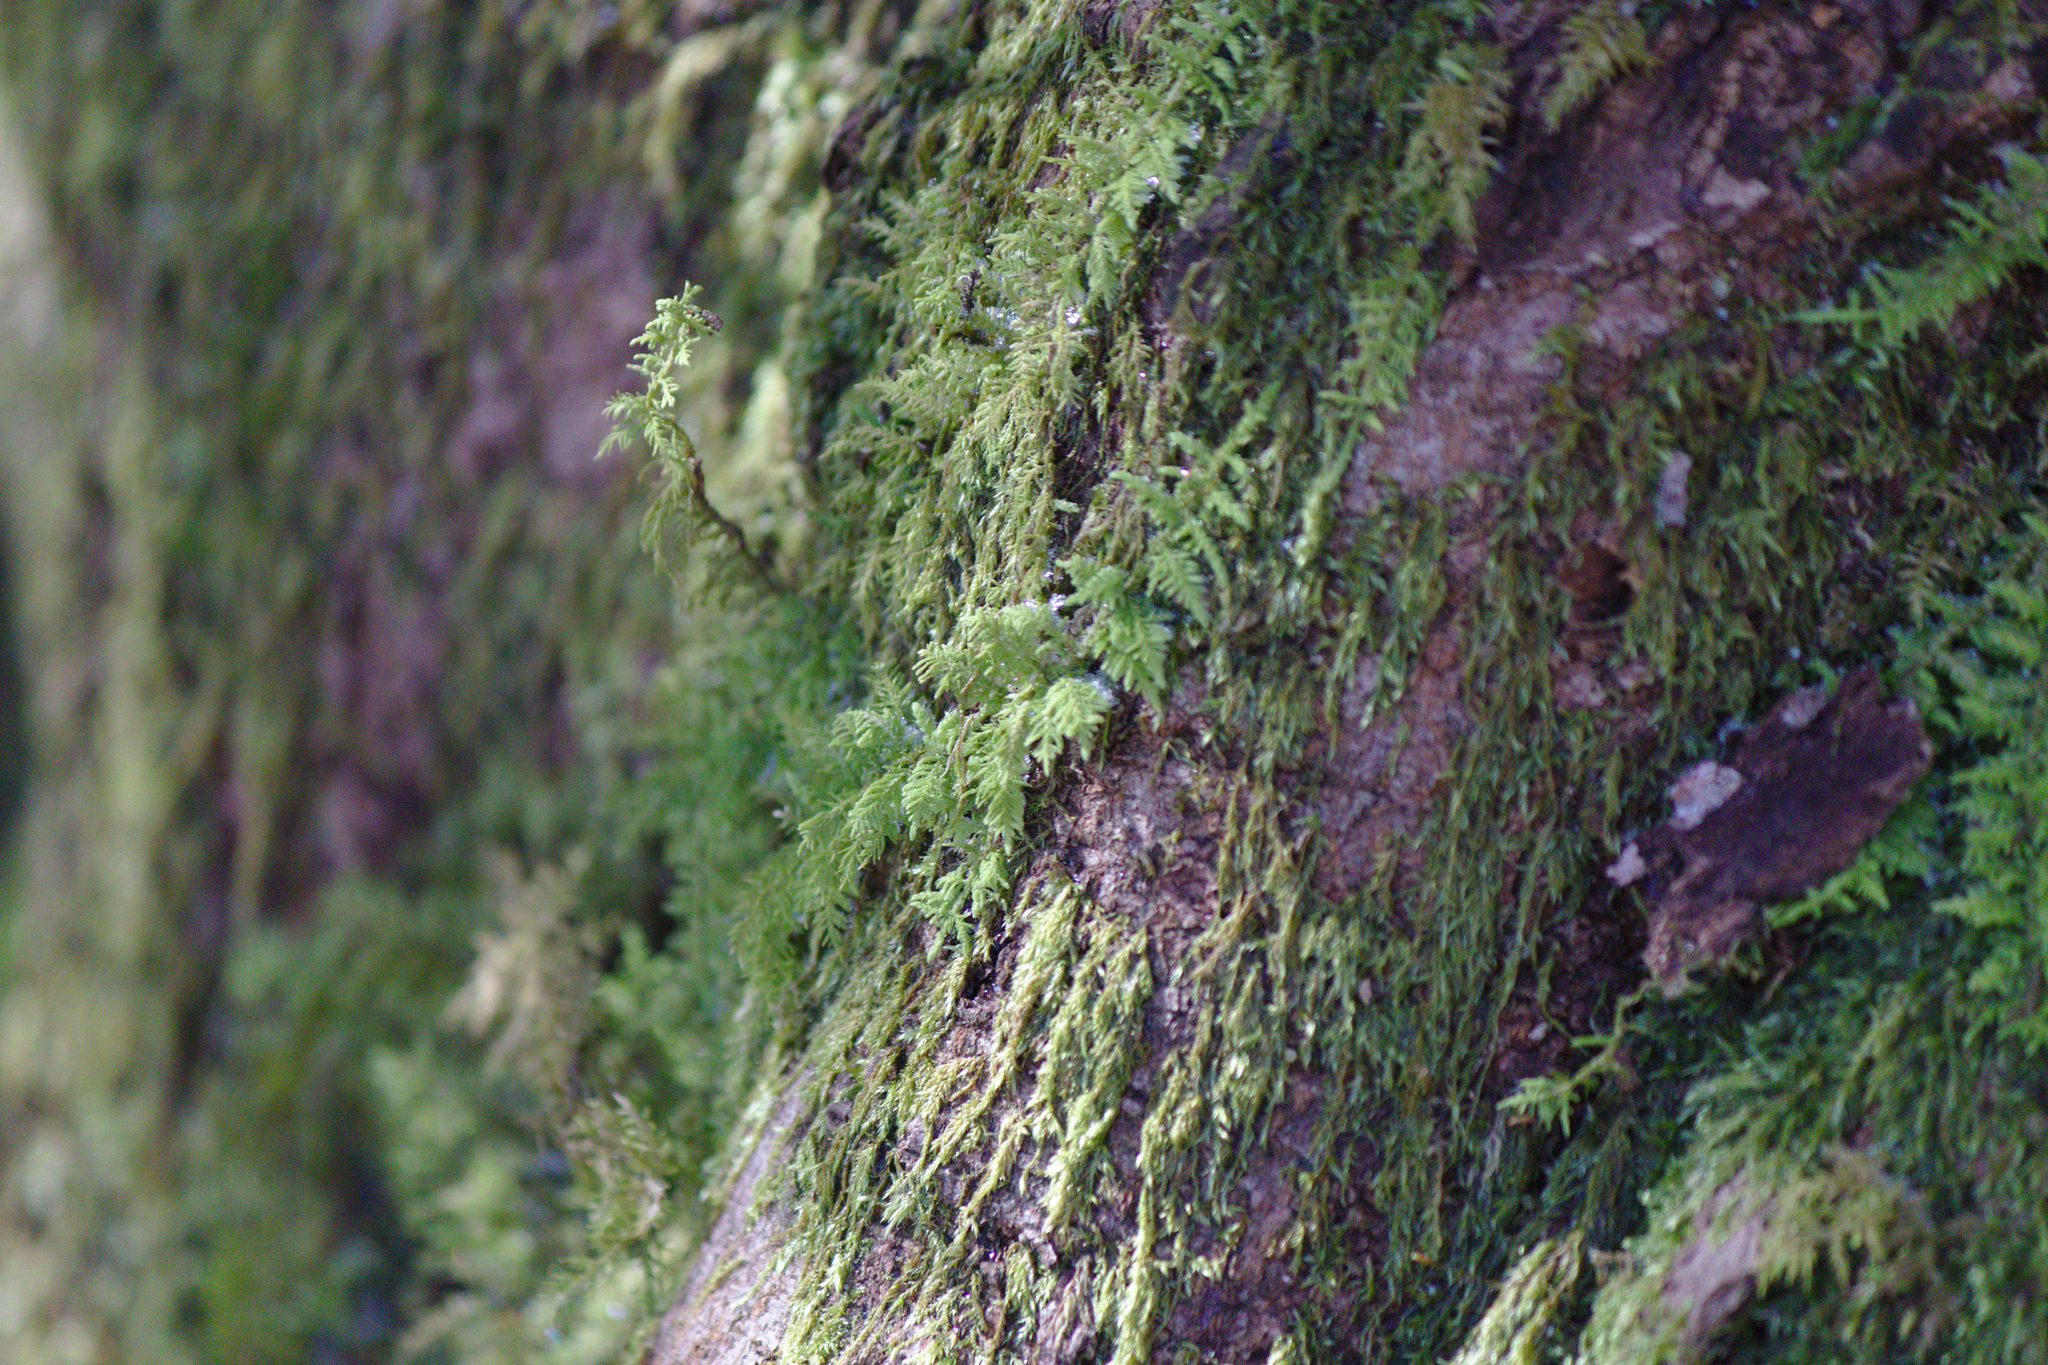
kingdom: Plantae
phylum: Bryophyta
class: Bryopsida
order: Hypnales
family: Thuidiaceae
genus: Thuidium
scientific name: Thuidium delicatulum
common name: Delicate fern moss
